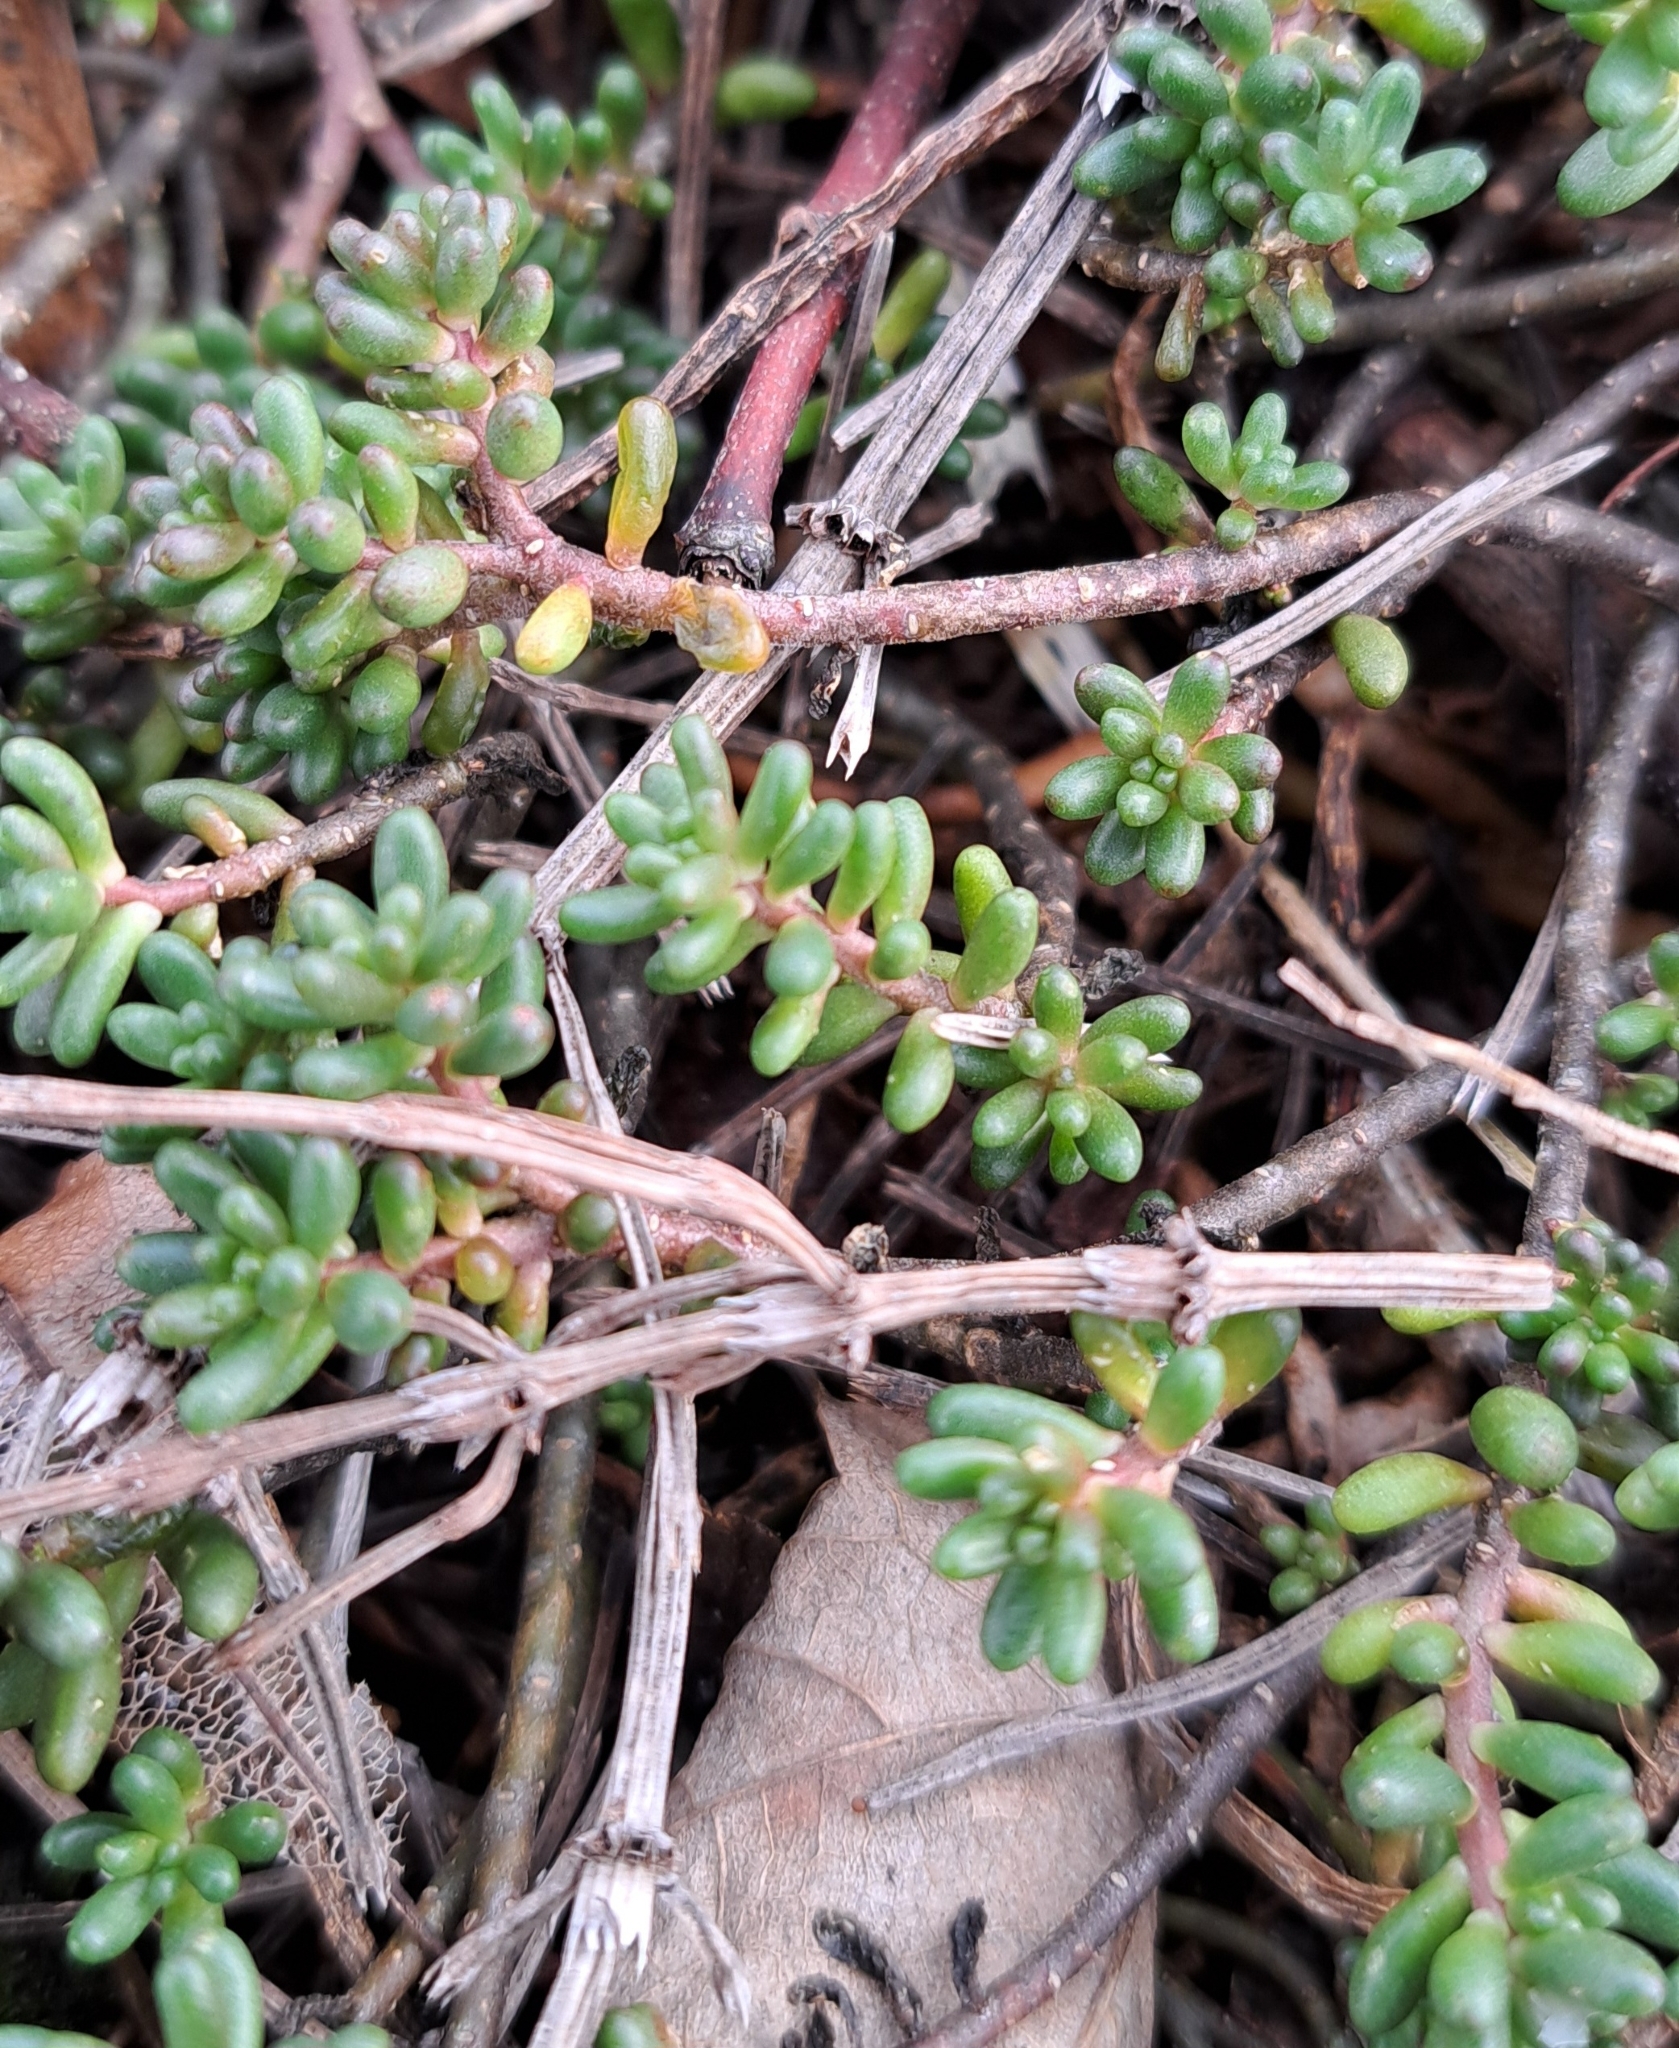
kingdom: Plantae
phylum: Tracheophyta
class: Magnoliopsida
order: Saxifragales
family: Crassulaceae
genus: Sedum
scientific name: Sedum album
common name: White stonecrop
